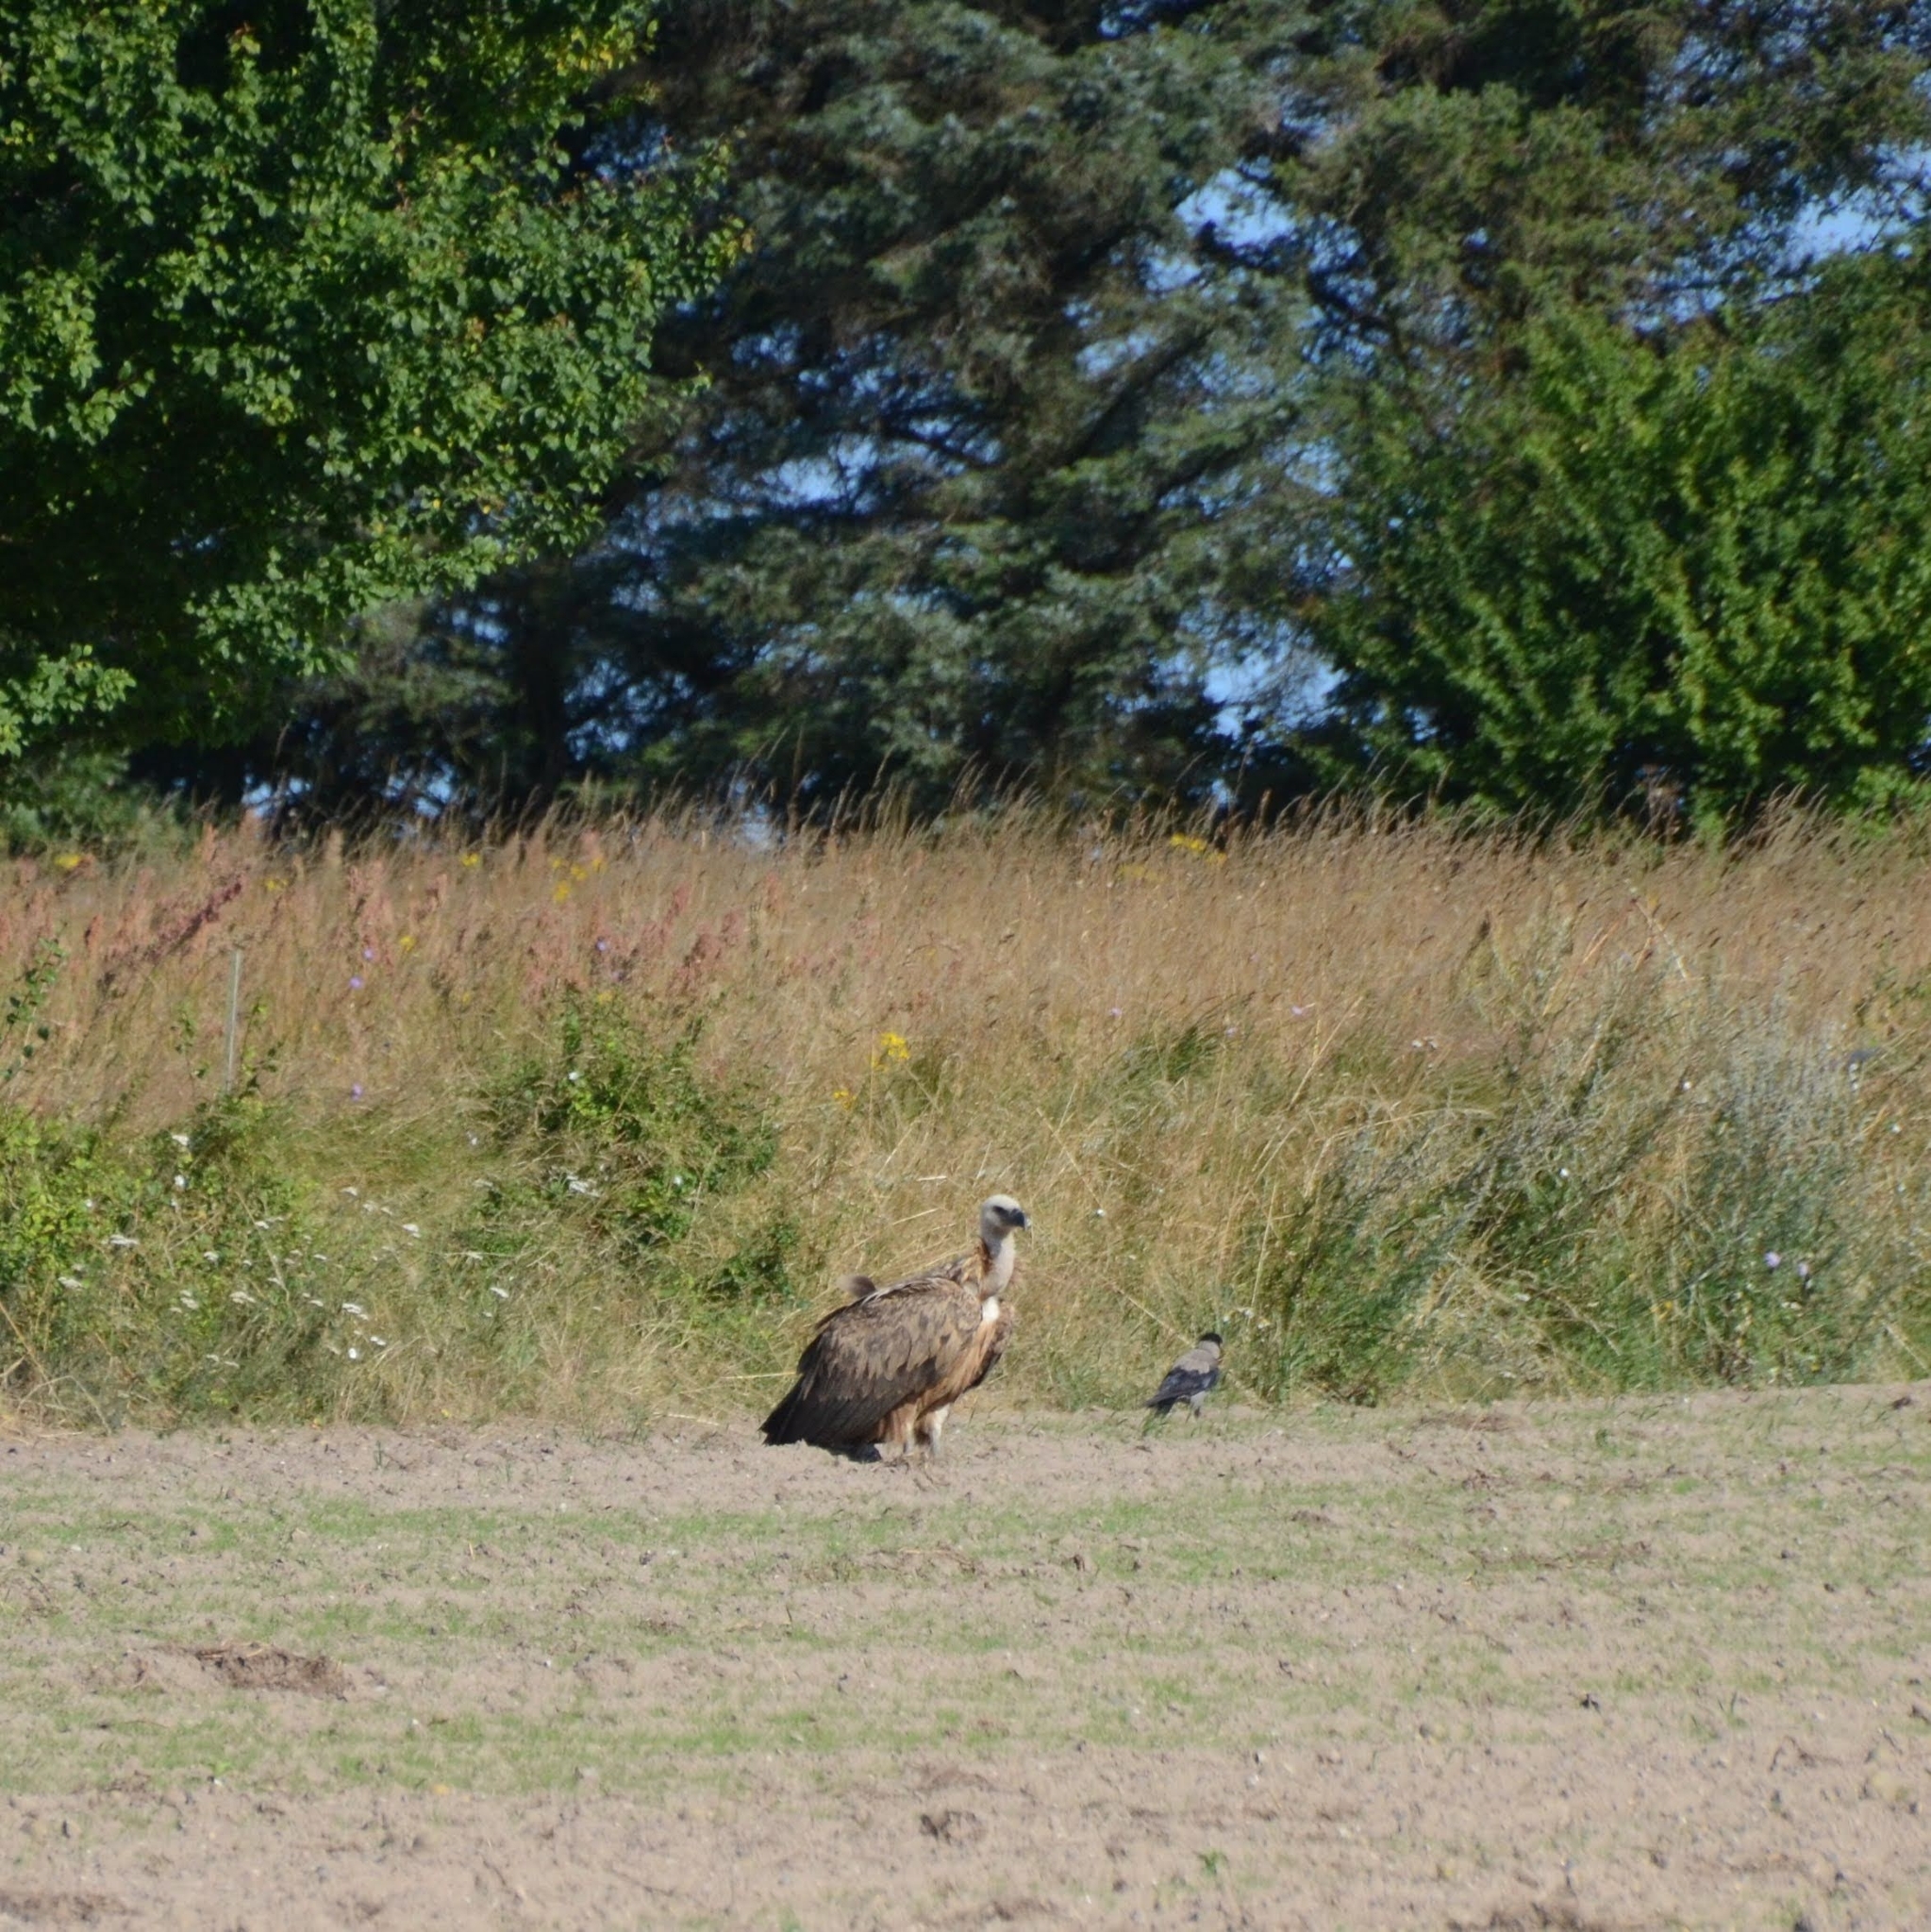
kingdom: Animalia
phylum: Chordata
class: Aves
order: Accipitriformes
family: Accipitridae
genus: Gyps
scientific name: Gyps fulvus
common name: Griffon vulture
